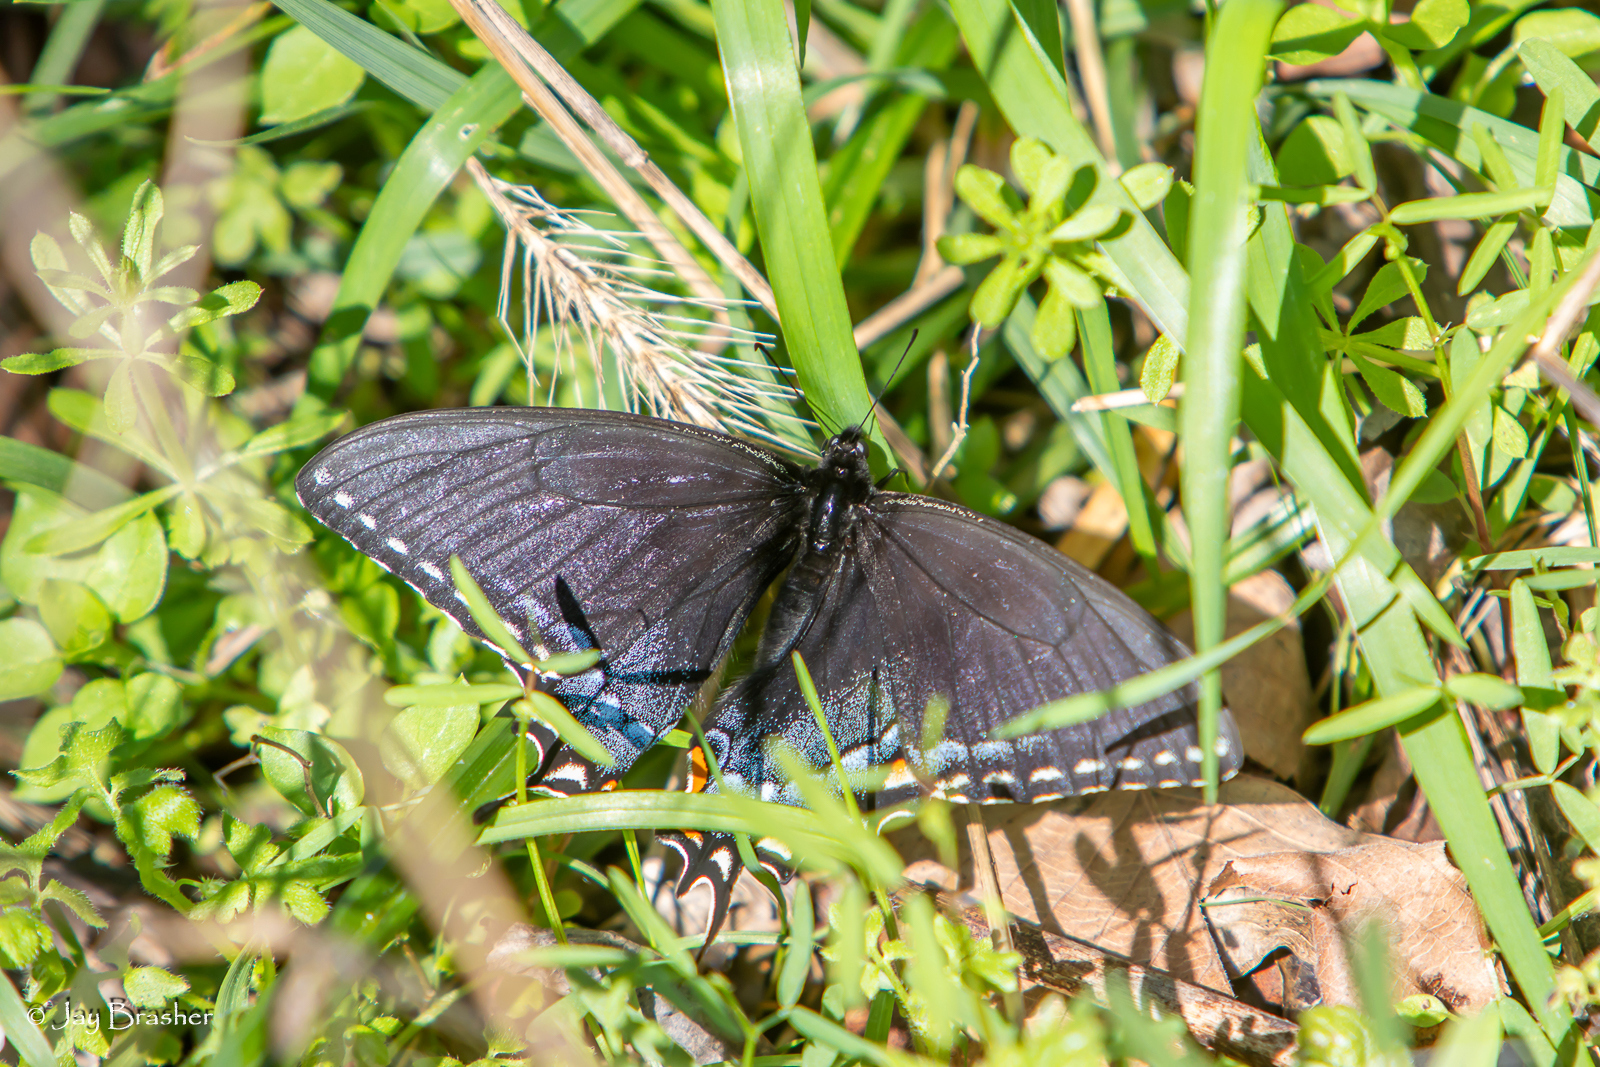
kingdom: Animalia
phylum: Arthropoda
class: Insecta
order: Lepidoptera
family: Papilionidae
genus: Papilio
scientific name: Papilio glaucus
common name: Tiger swallowtail
